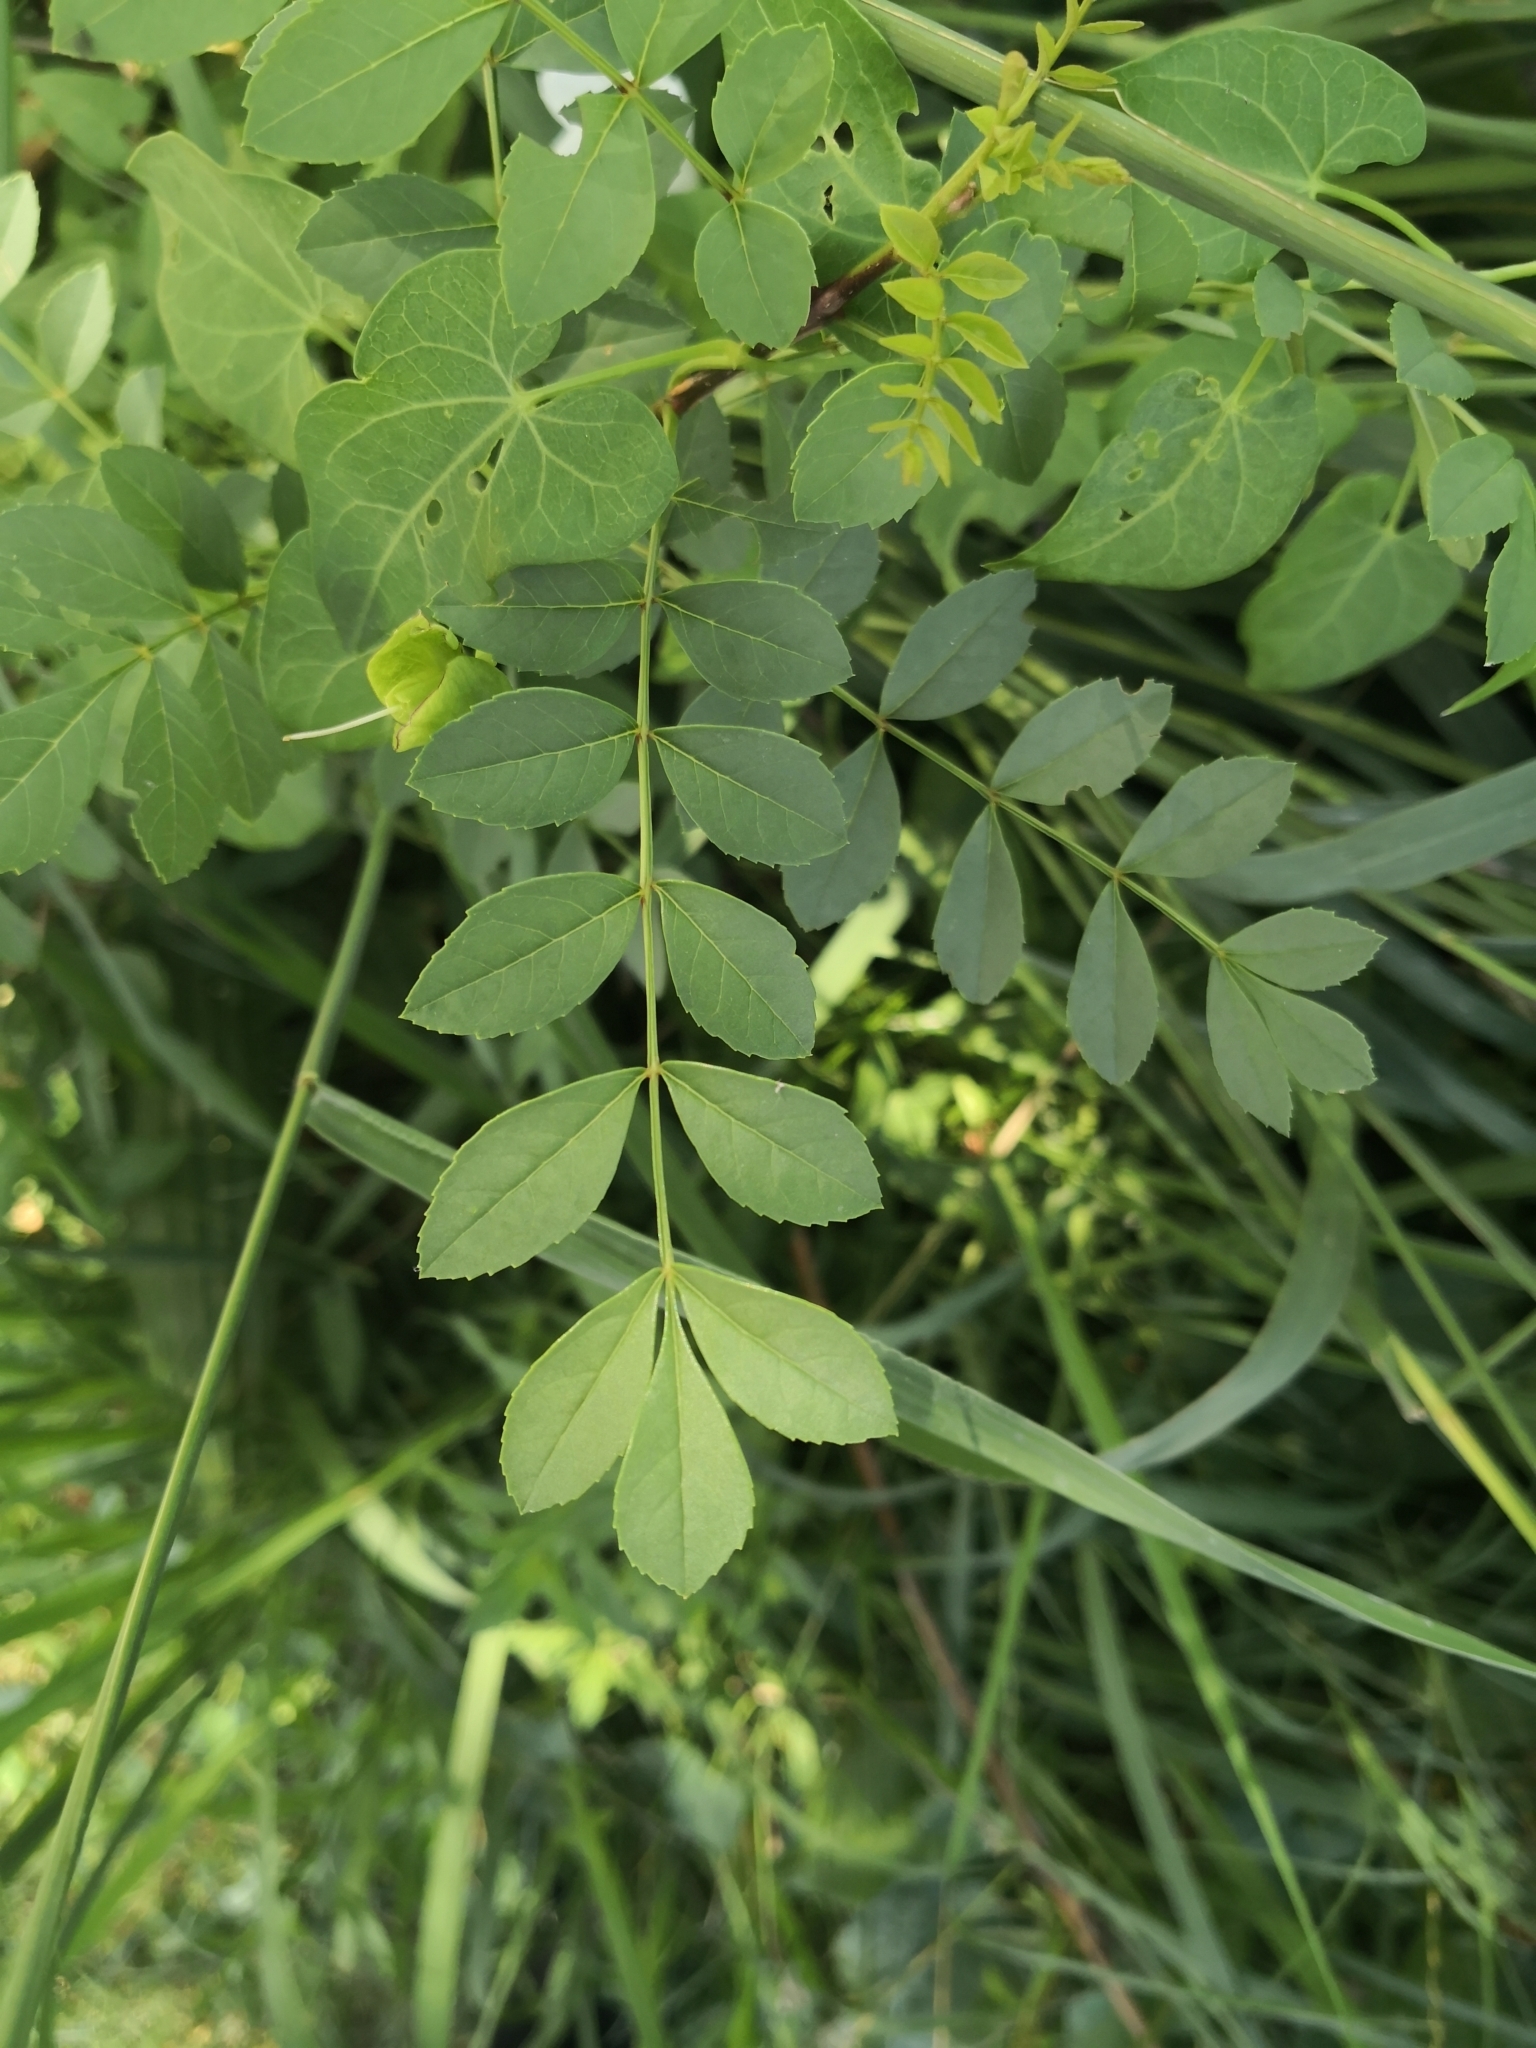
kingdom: Plantae
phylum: Tracheophyta
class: Magnoliopsida
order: Lamiales
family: Oleaceae
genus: Fraxinus
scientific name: Fraxinus angustifolia
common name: Narrow-leafed ash
